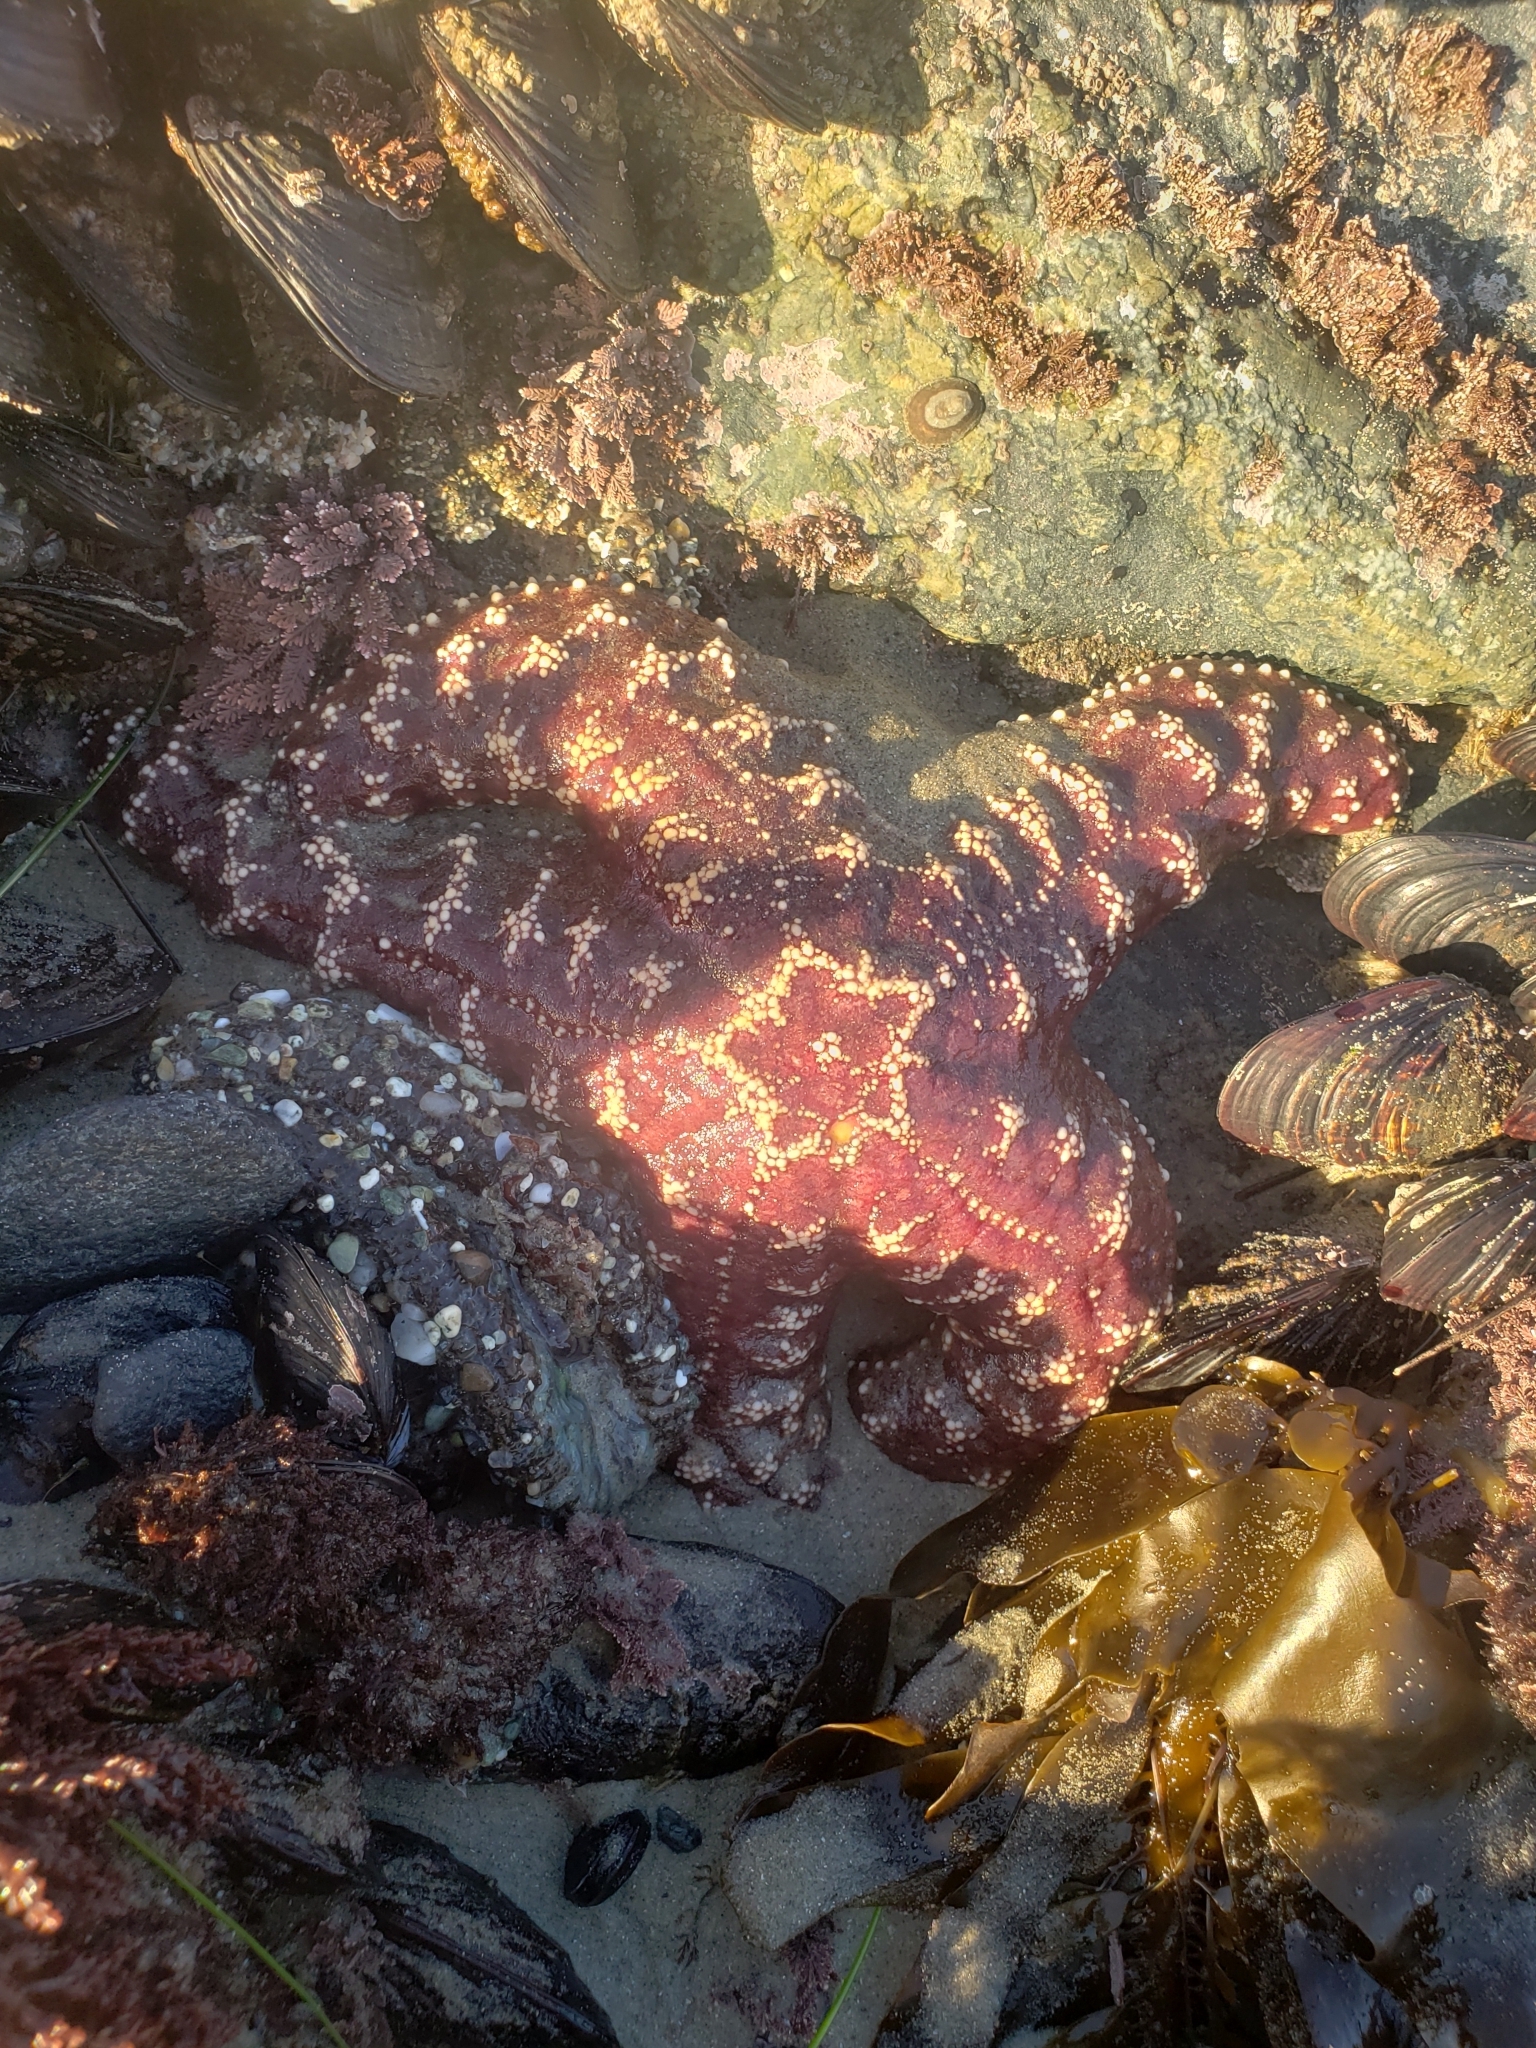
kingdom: Animalia
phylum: Echinodermata
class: Asteroidea
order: Forcipulatida
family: Asteriidae
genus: Pisaster
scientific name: Pisaster ochraceus
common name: Ochre stars
